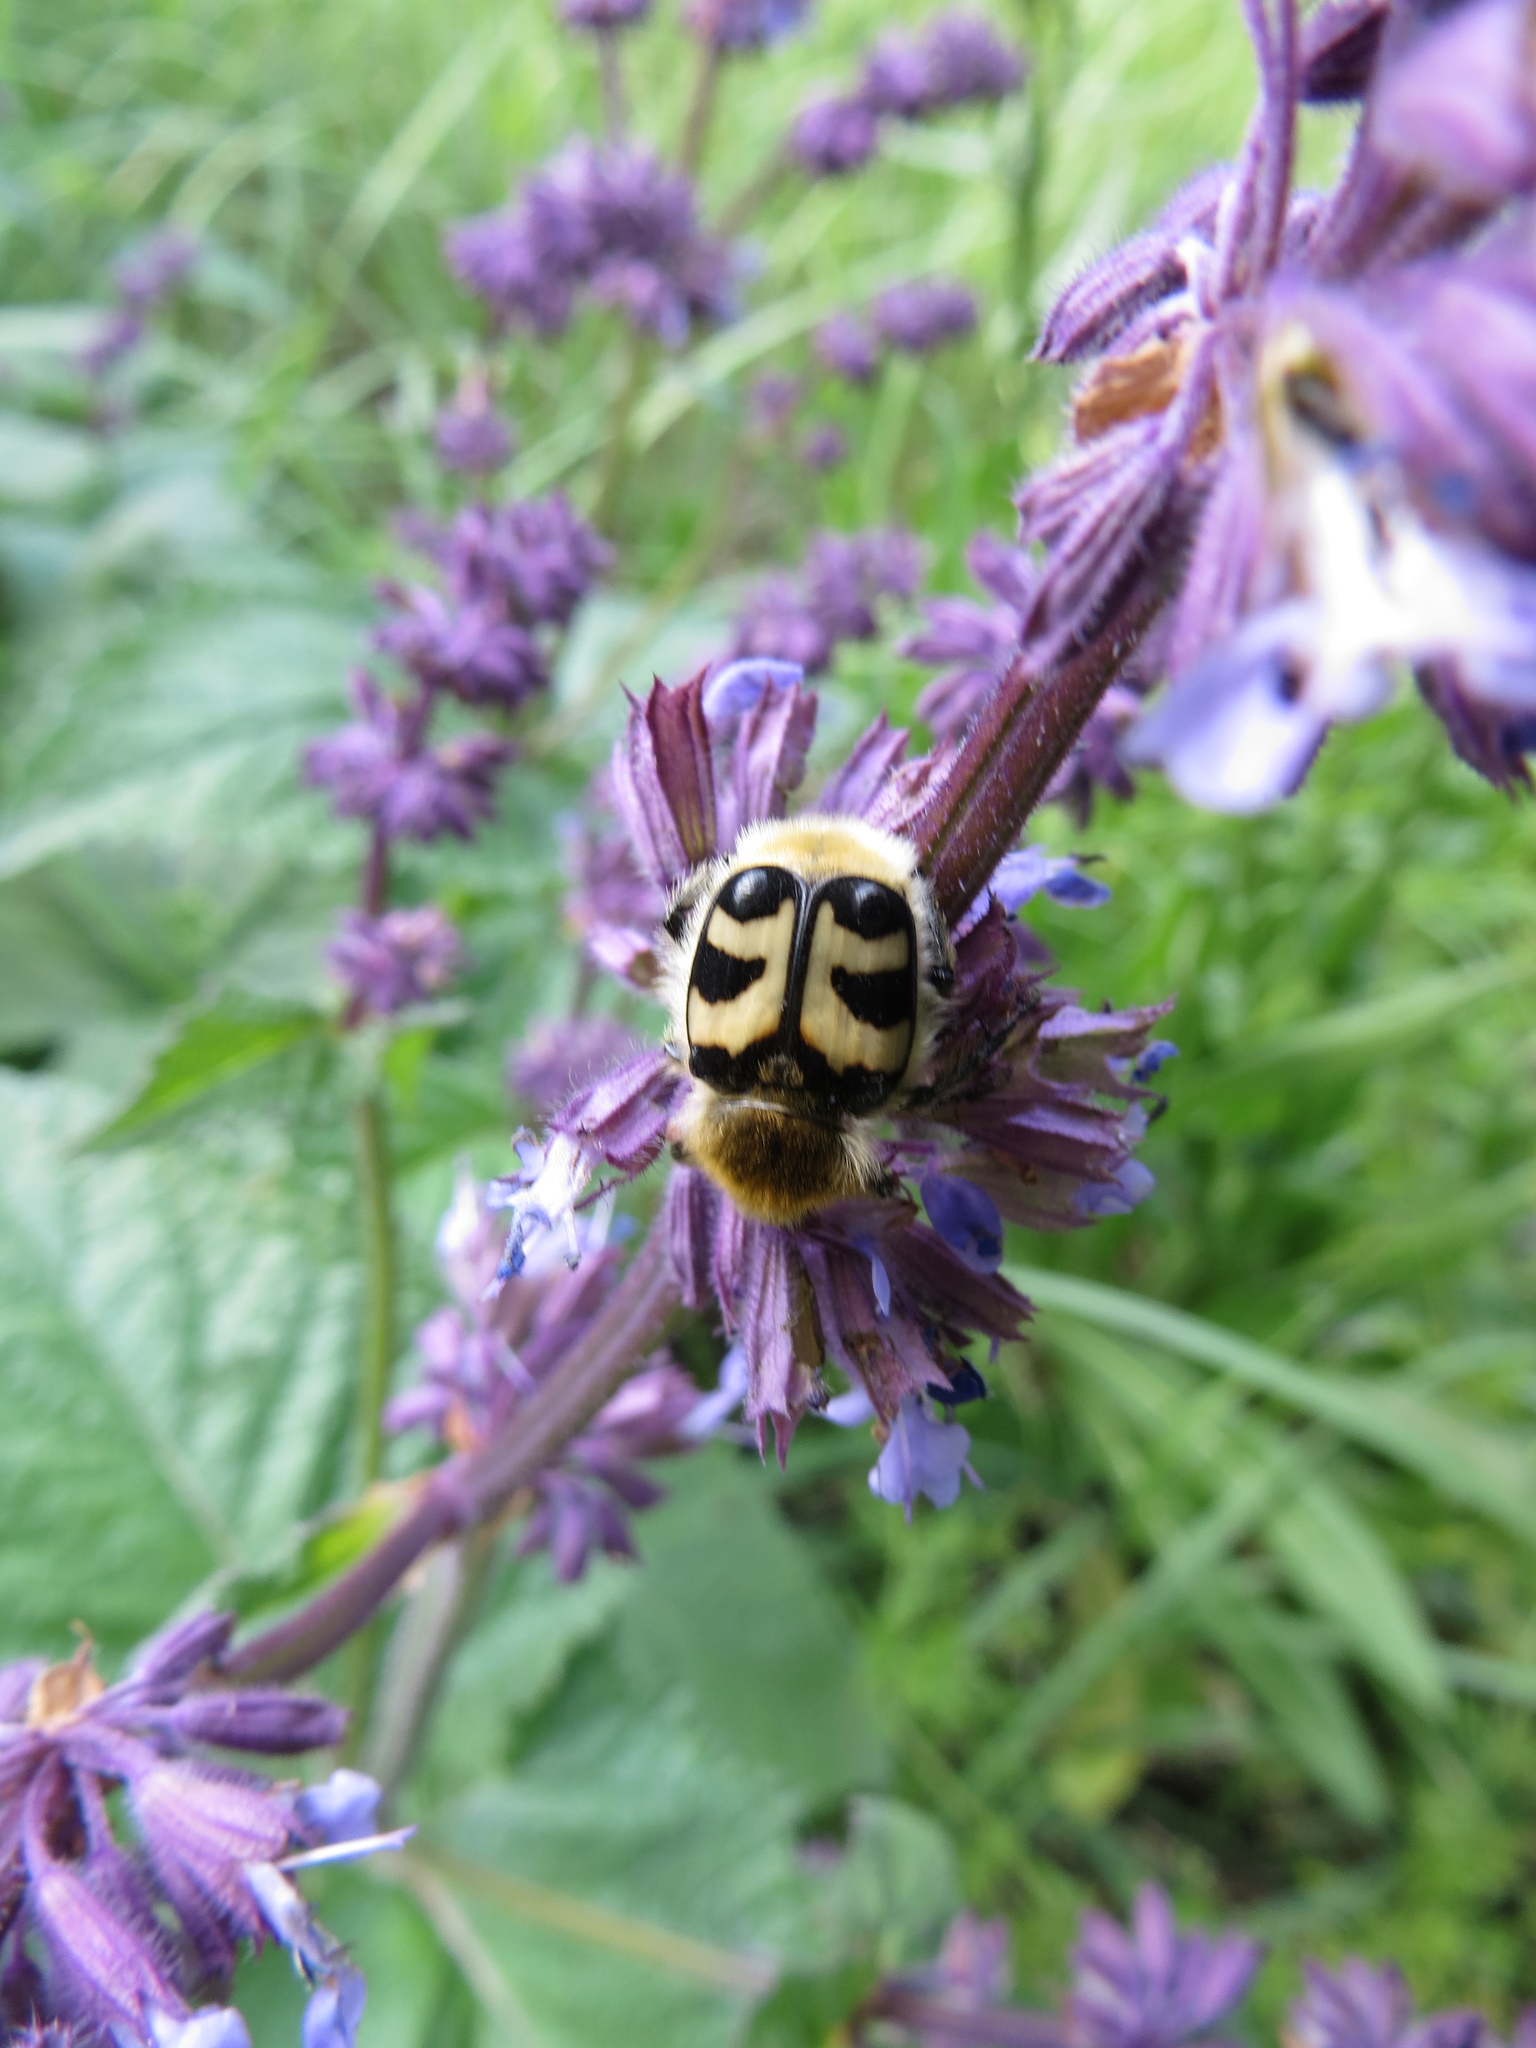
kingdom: Animalia
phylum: Arthropoda
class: Insecta
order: Coleoptera
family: Scarabaeidae
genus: Trichius
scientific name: Trichius fasciatus
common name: Bee beetle
